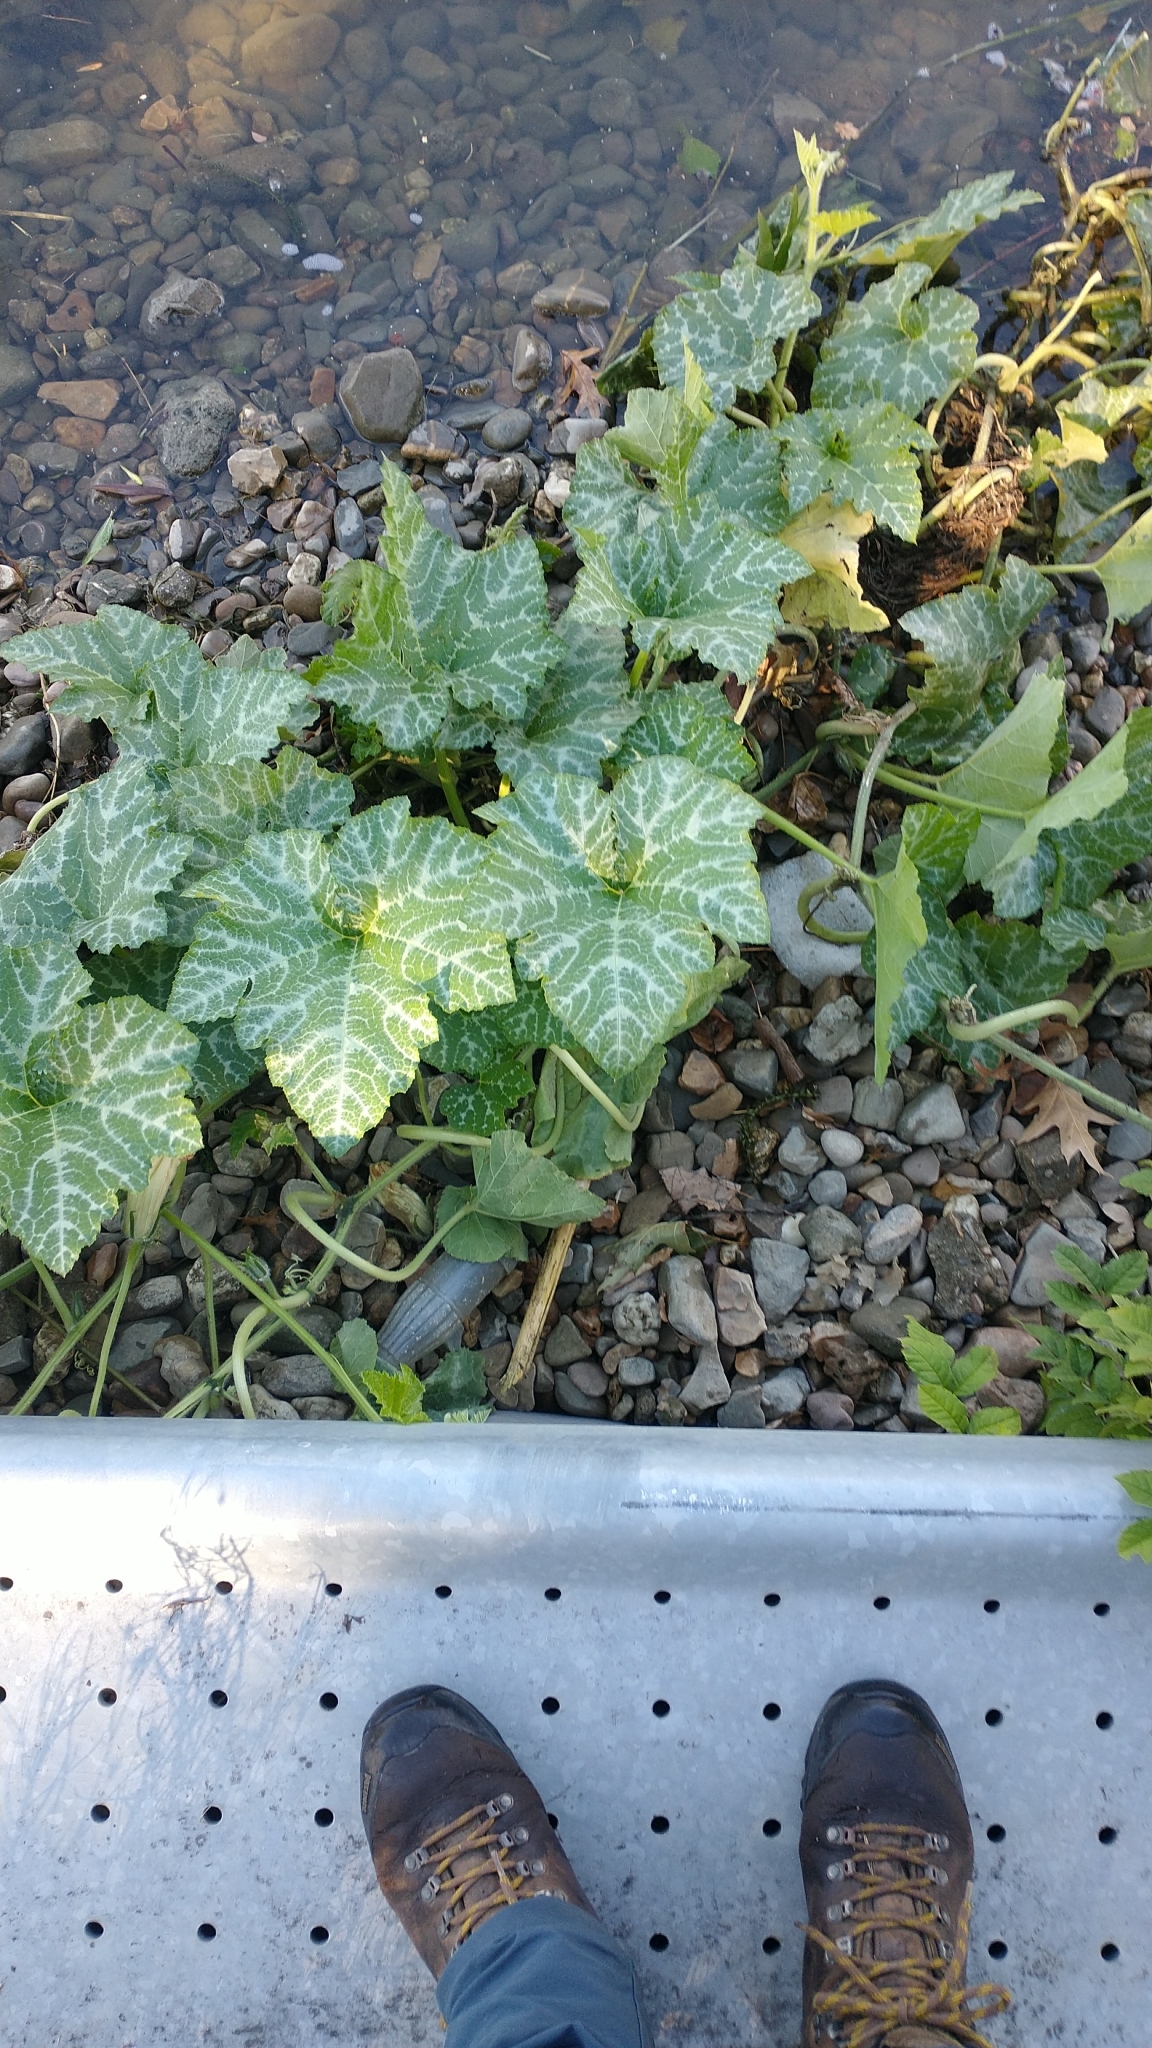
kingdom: Plantae
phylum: Tracheophyta
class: Magnoliopsida
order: Cucurbitales
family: Cucurbitaceae
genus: Cucurbita
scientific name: Cucurbita moschata
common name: Squash / pumpkin
